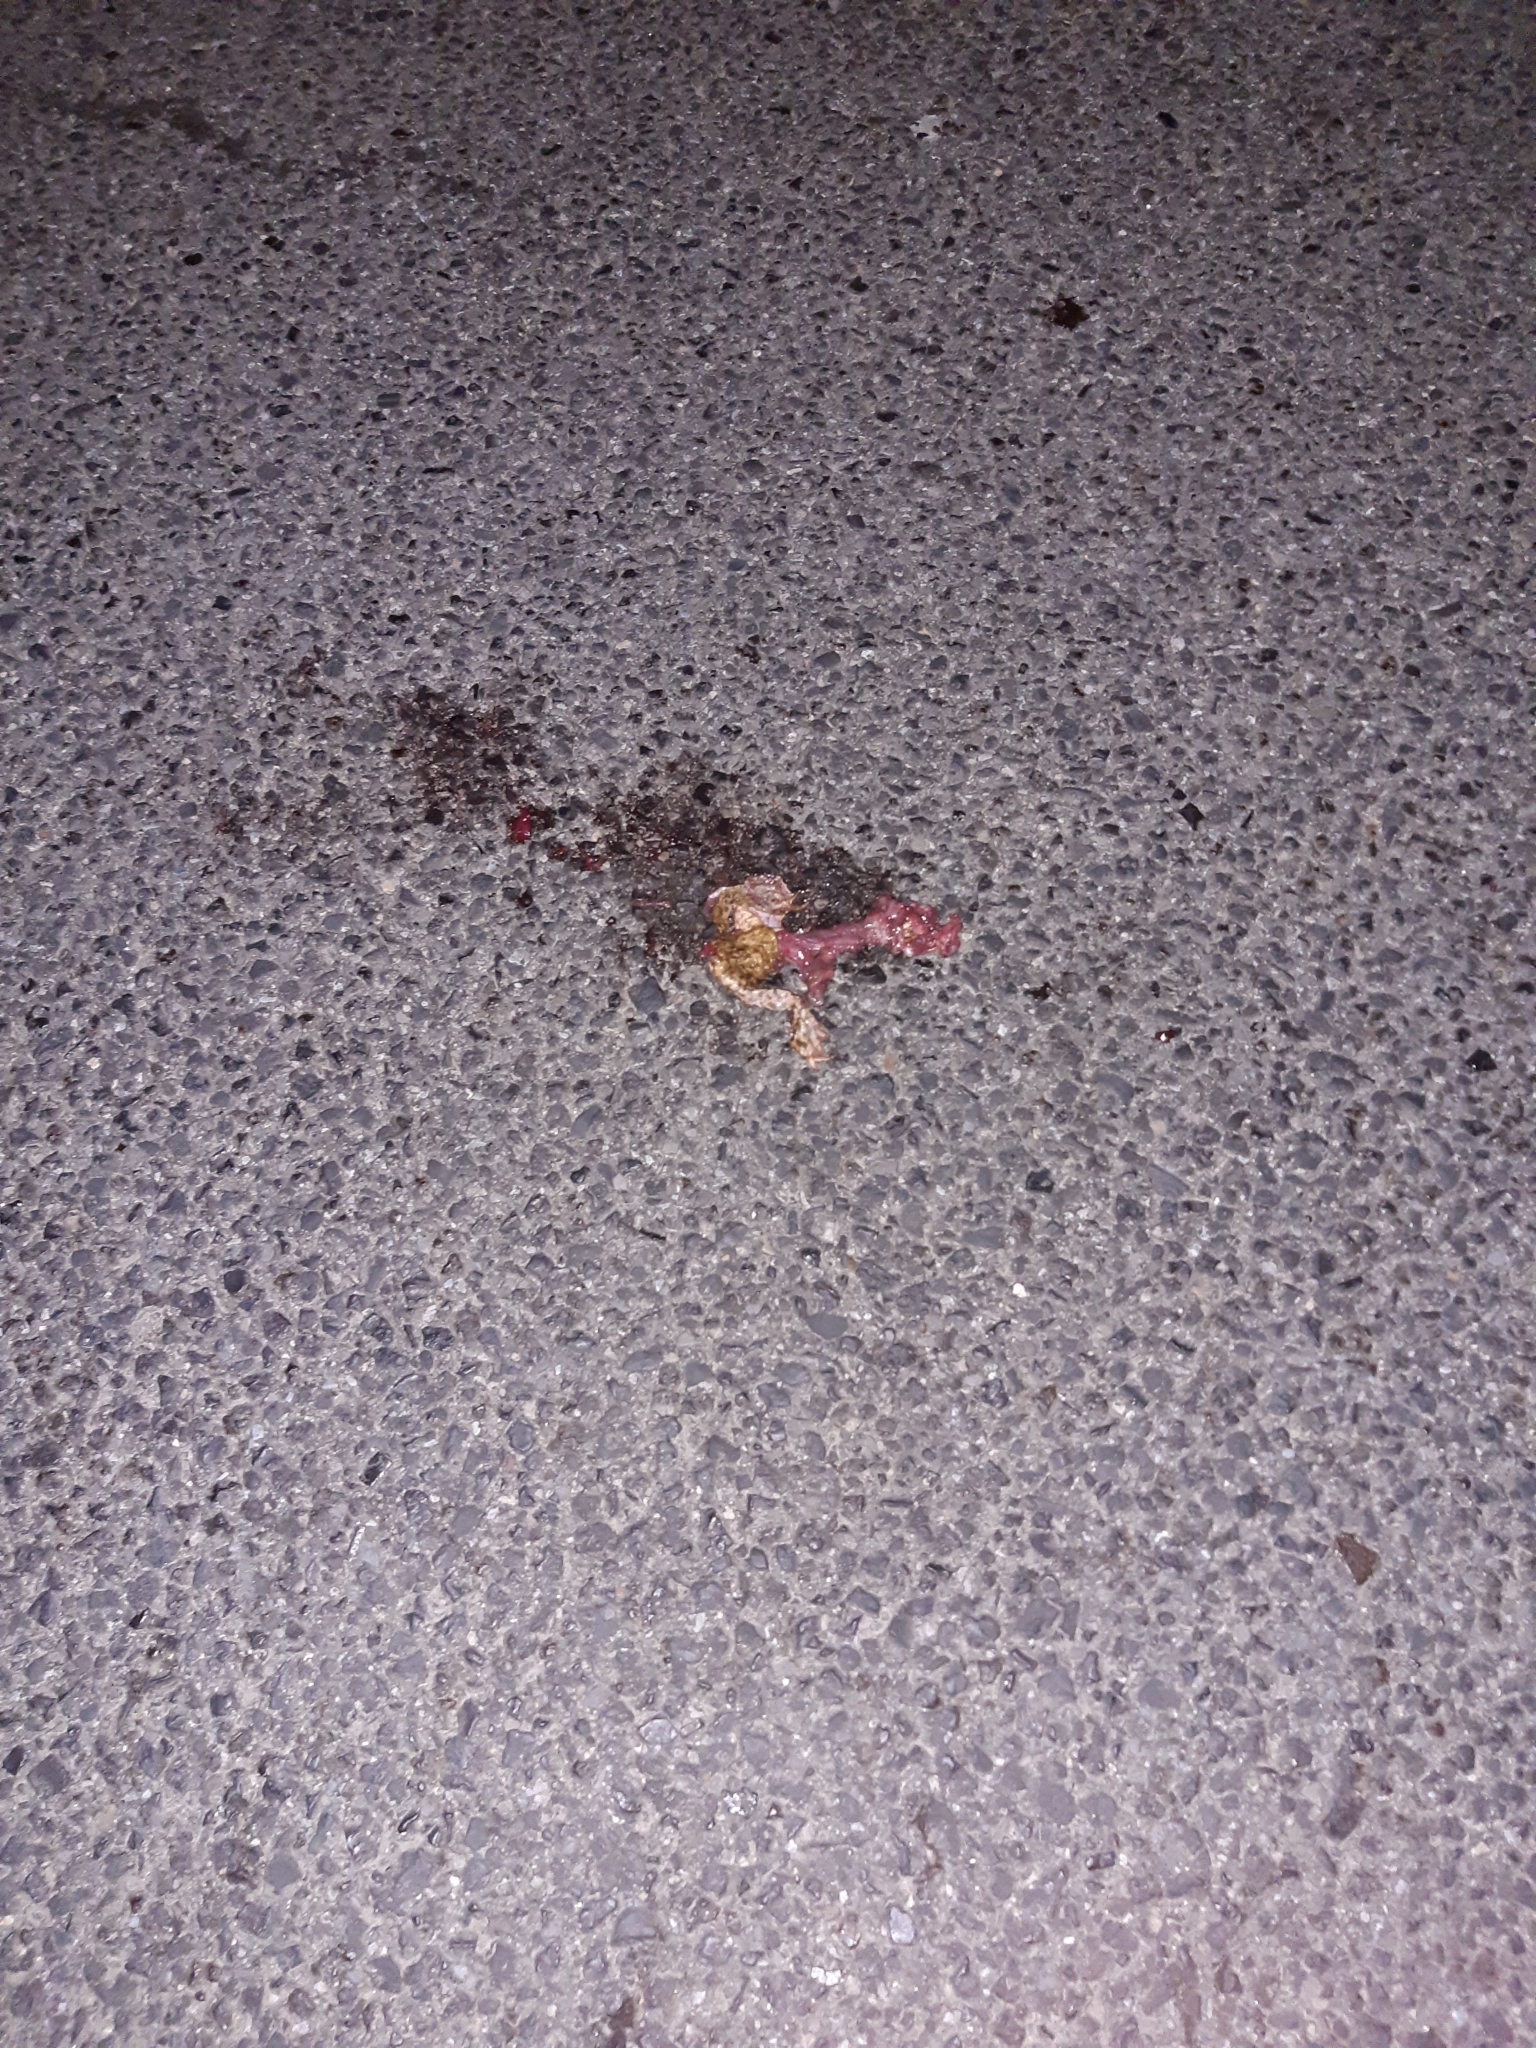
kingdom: Animalia
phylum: Chordata
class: Amphibia
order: Anura
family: Bufonidae
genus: Bufo
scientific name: Bufo bufo
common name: Common toad
